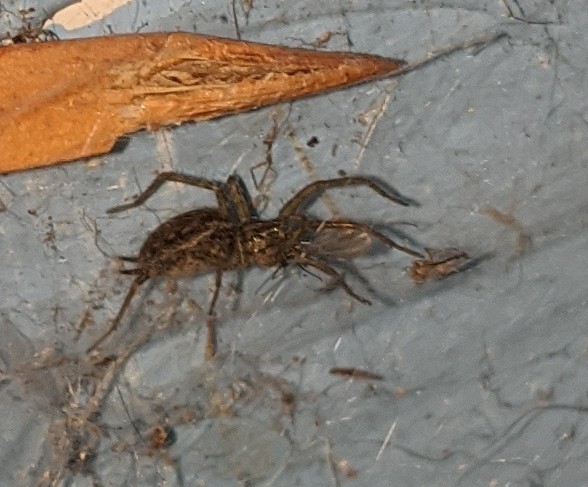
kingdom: Animalia
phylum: Arthropoda
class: Arachnida
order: Araneae
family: Agelenidae
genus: Agelenopsis
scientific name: Agelenopsis
